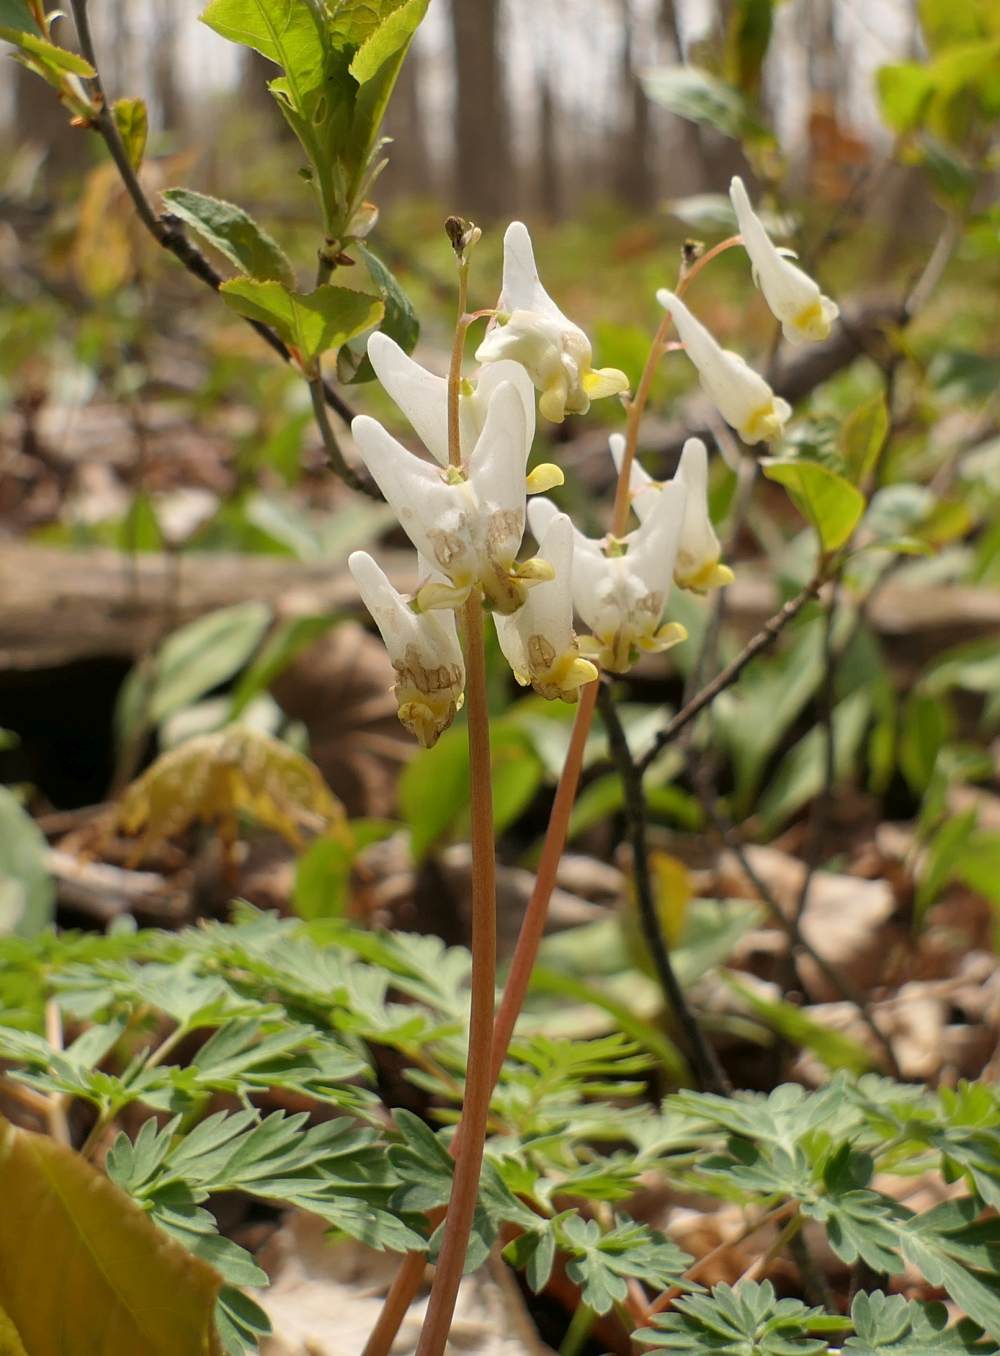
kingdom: Plantae
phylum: Tracheophyta
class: Magnoliopsida
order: Ranunculales
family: Papaveraceae
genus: Dicentra
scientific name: Dicentra cucullaria
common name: Dutchman's breeches
